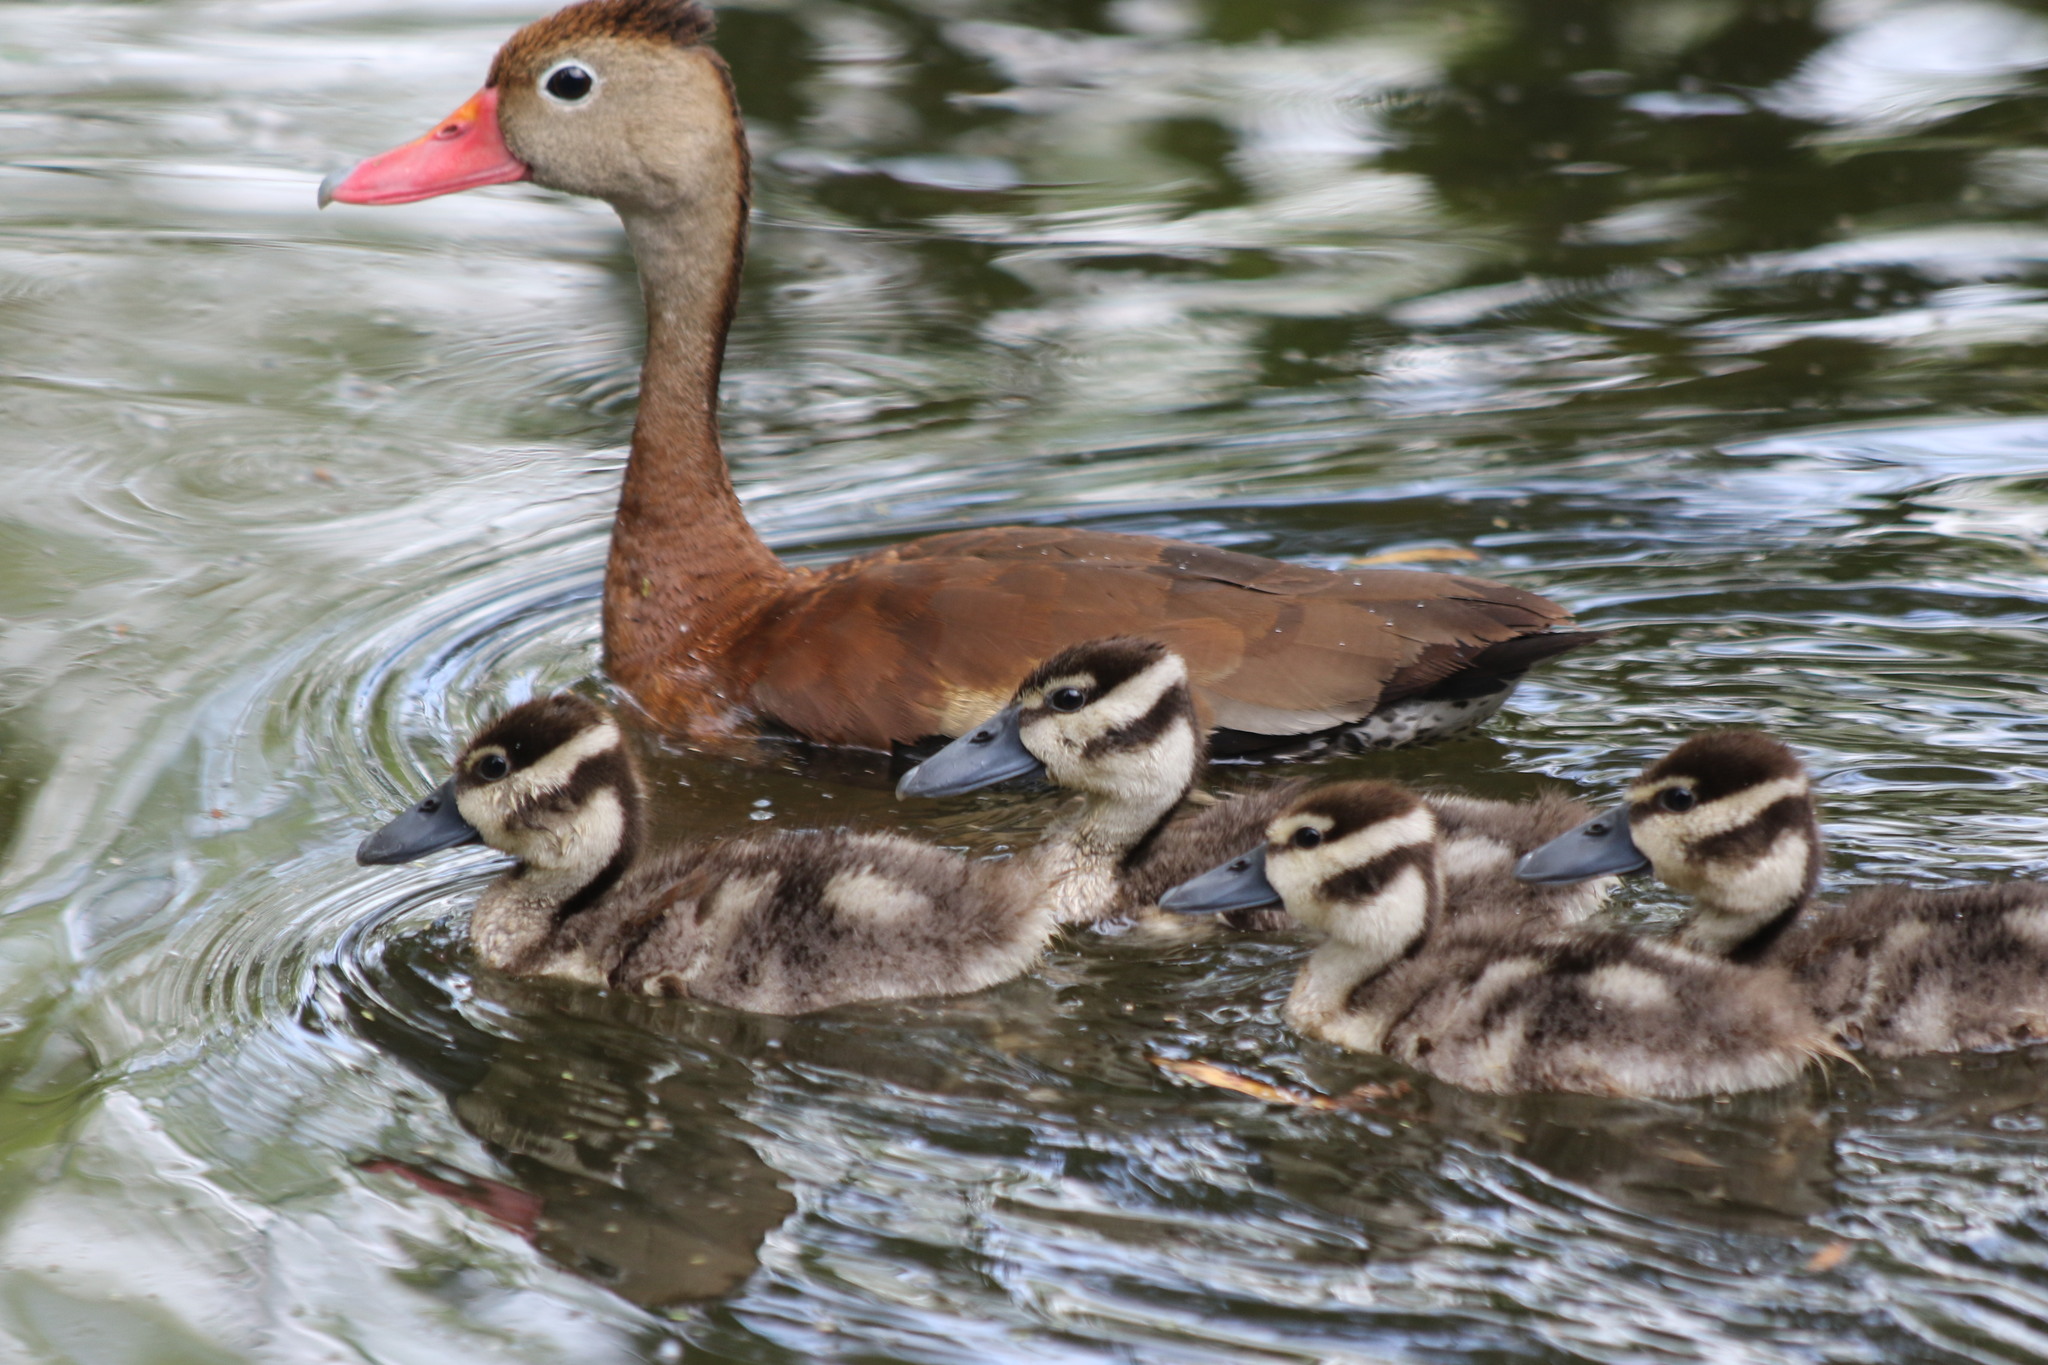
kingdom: Animalia
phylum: Chordata
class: Aves
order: Anseriformes
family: Anatidae
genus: Dendrocygna
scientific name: Dendrocygna autumnalis
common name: Black-bellied whistling duck
